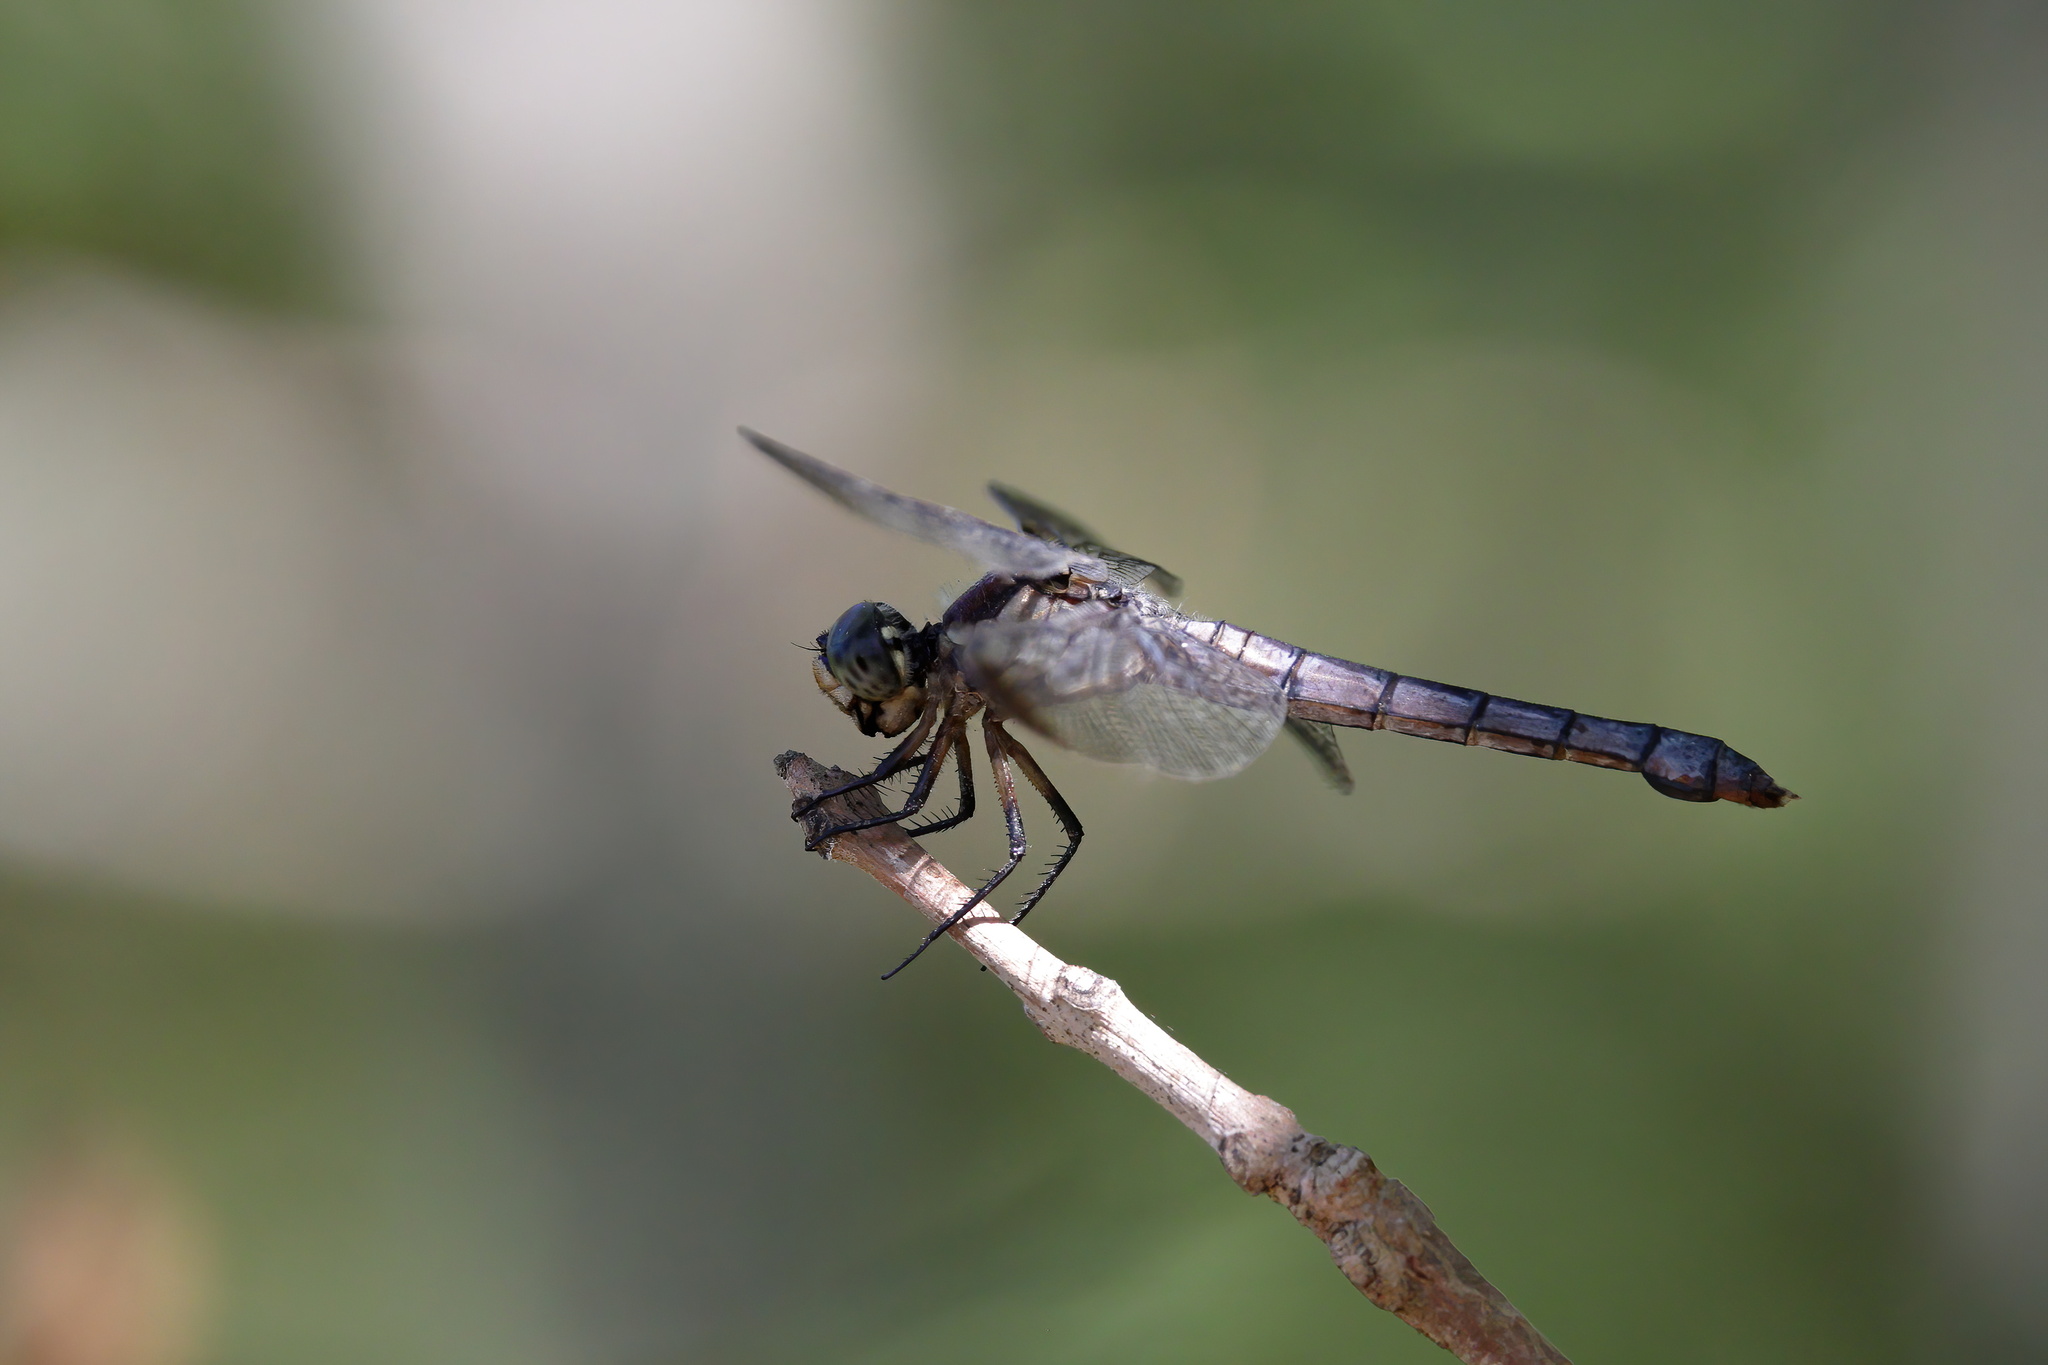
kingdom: Animalia
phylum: Arthropoda
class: Insecta
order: Odonata
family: Libellulidae
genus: Libellula
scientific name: Libellula vibrans
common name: Great blue skimmer
